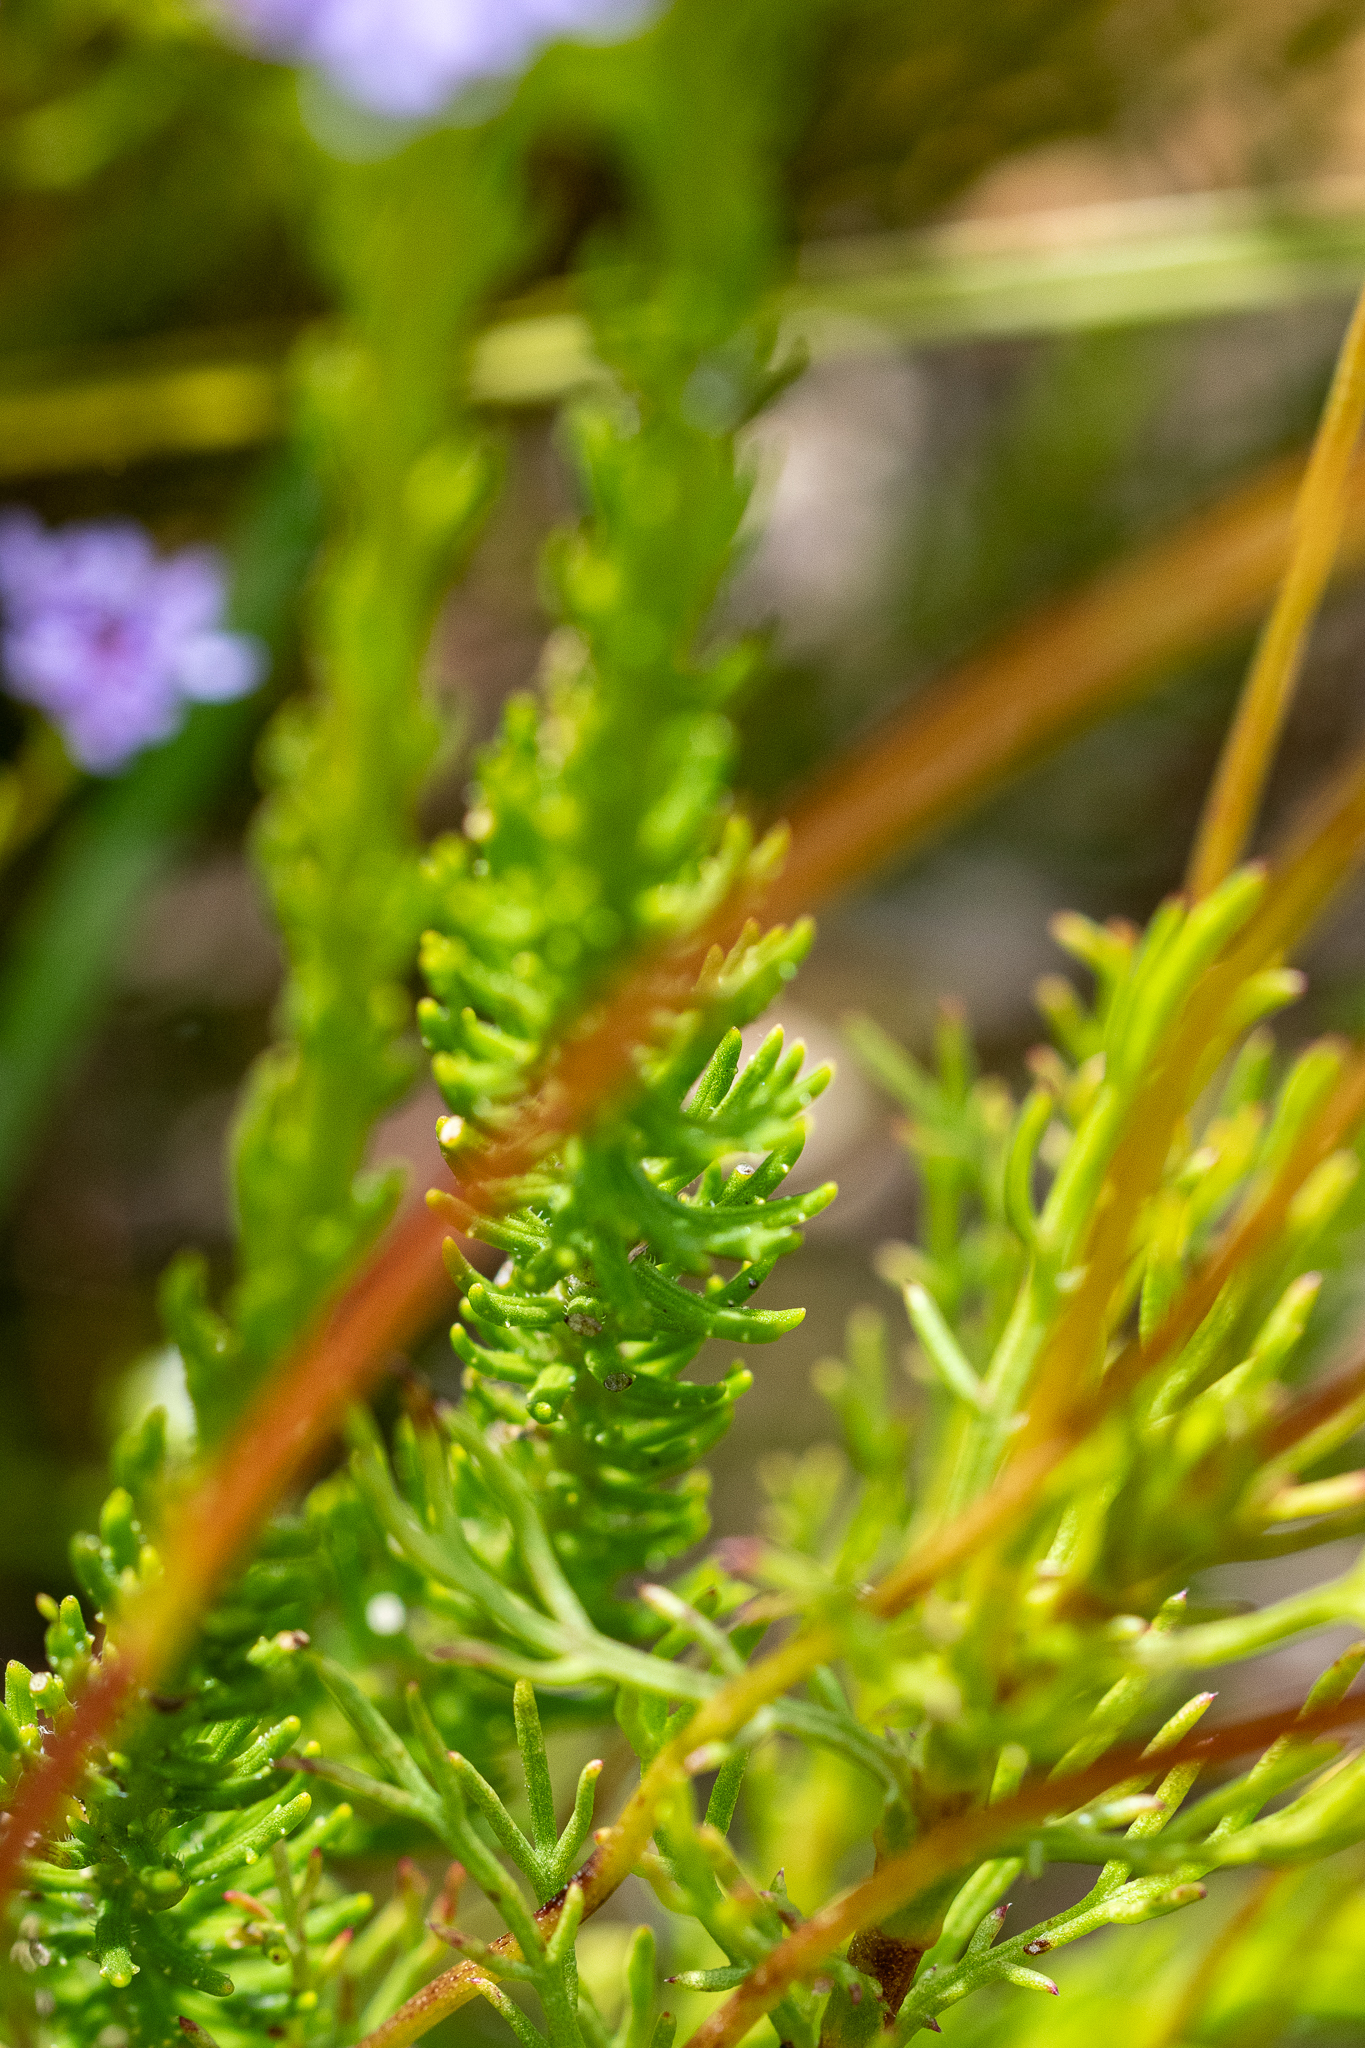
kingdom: Plantae
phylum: Tracheophyta
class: Magnoliopsida
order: Lamiales
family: Scrophulariaceae
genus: Pseudoselago
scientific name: Pseudoselago spuria
